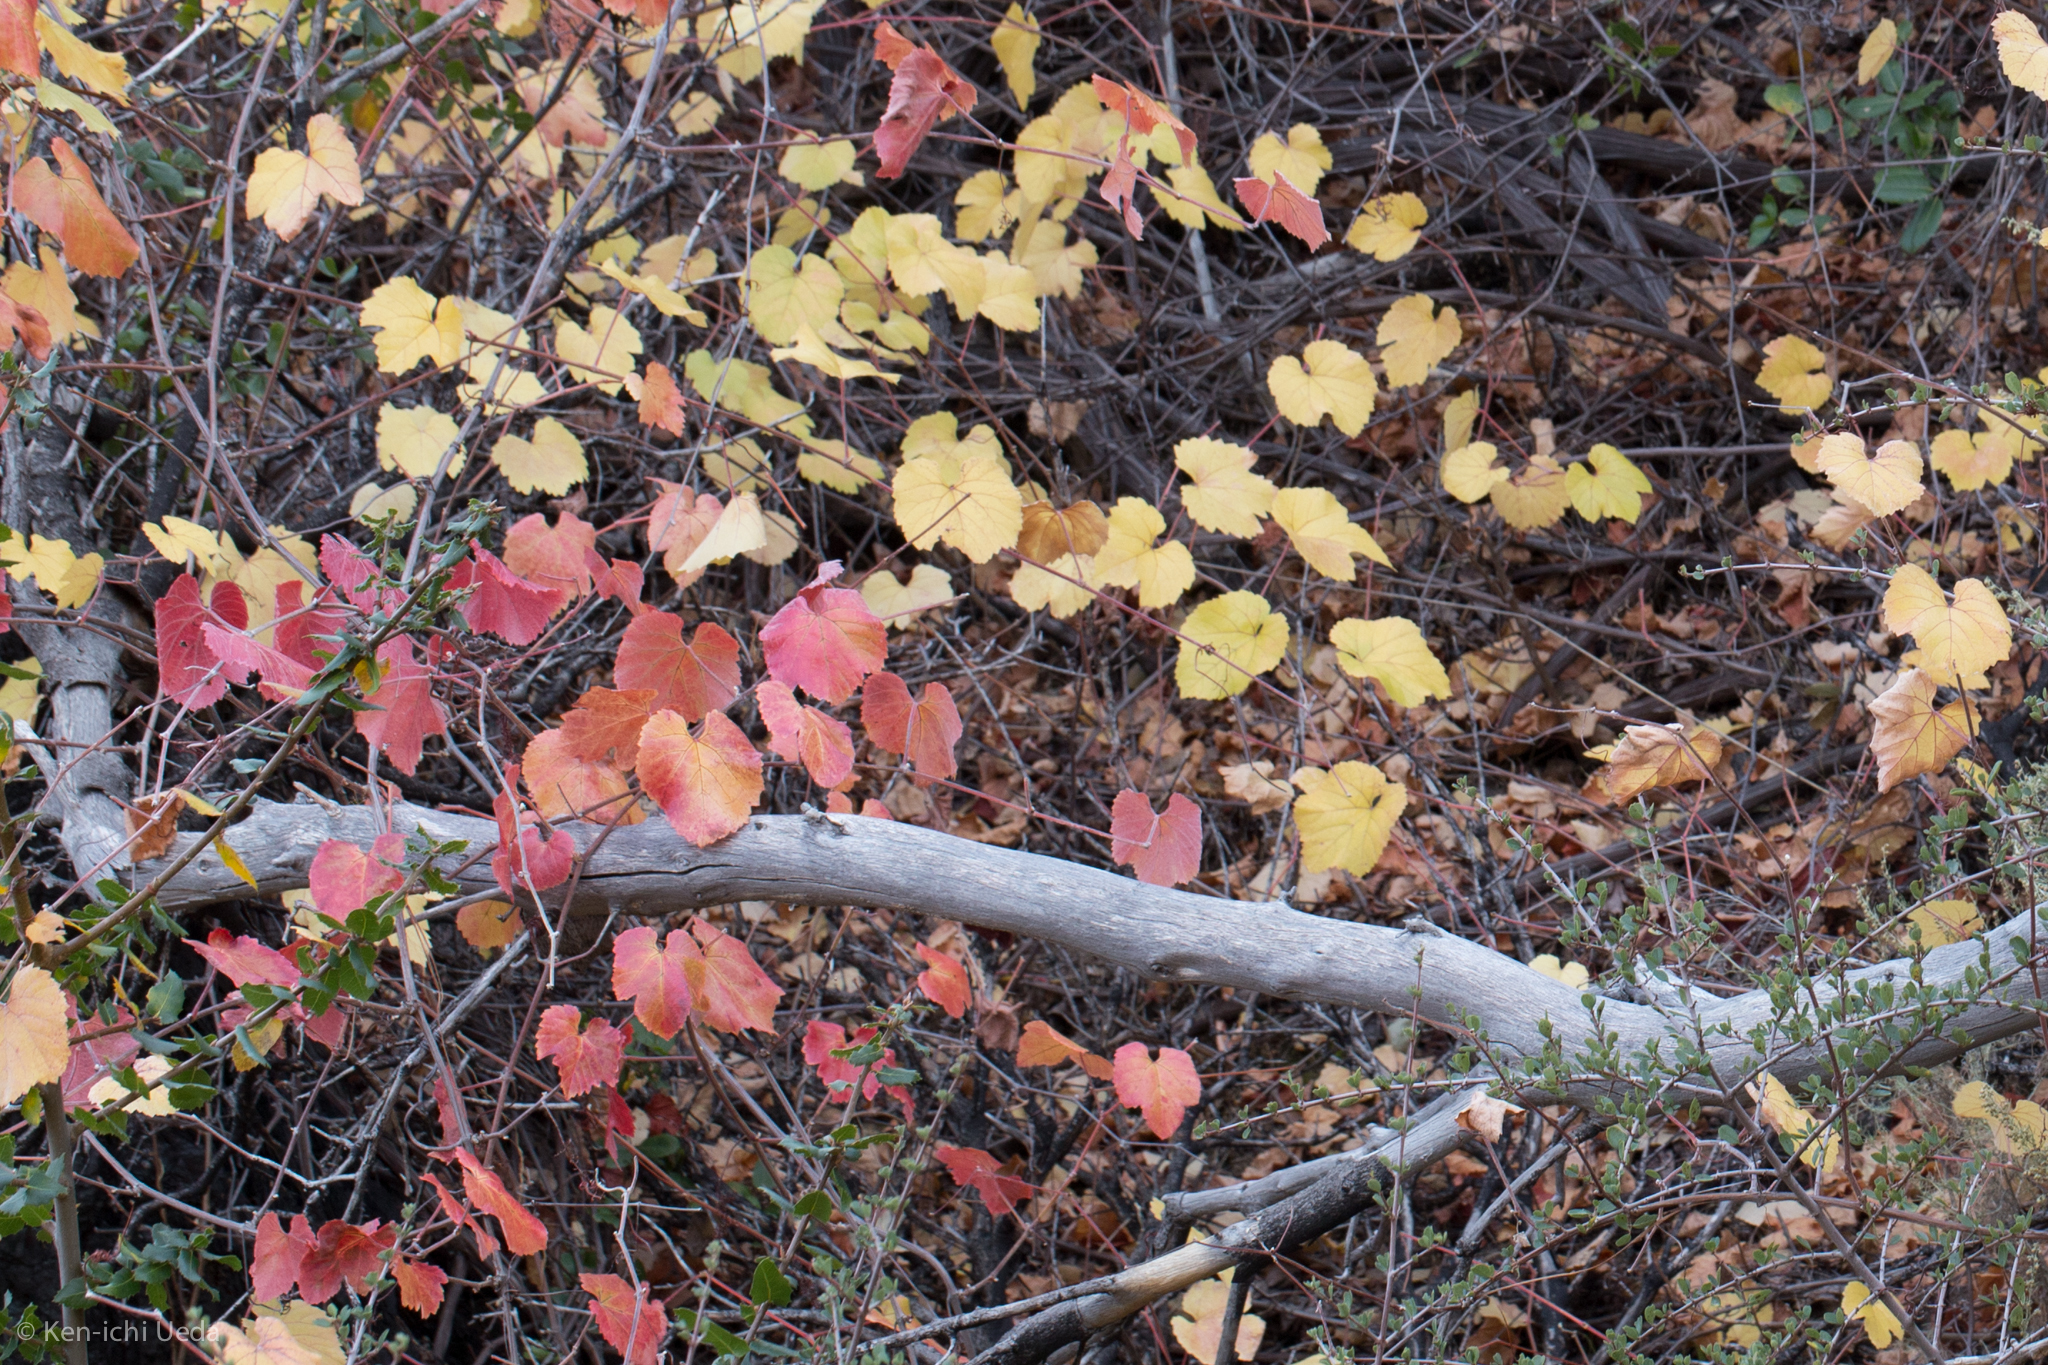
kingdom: Plantae
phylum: Tracheophyta
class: Magnoliopsida
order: Vitales
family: Vitaceae
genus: Vitis
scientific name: Vitis californica
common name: California wild grape
